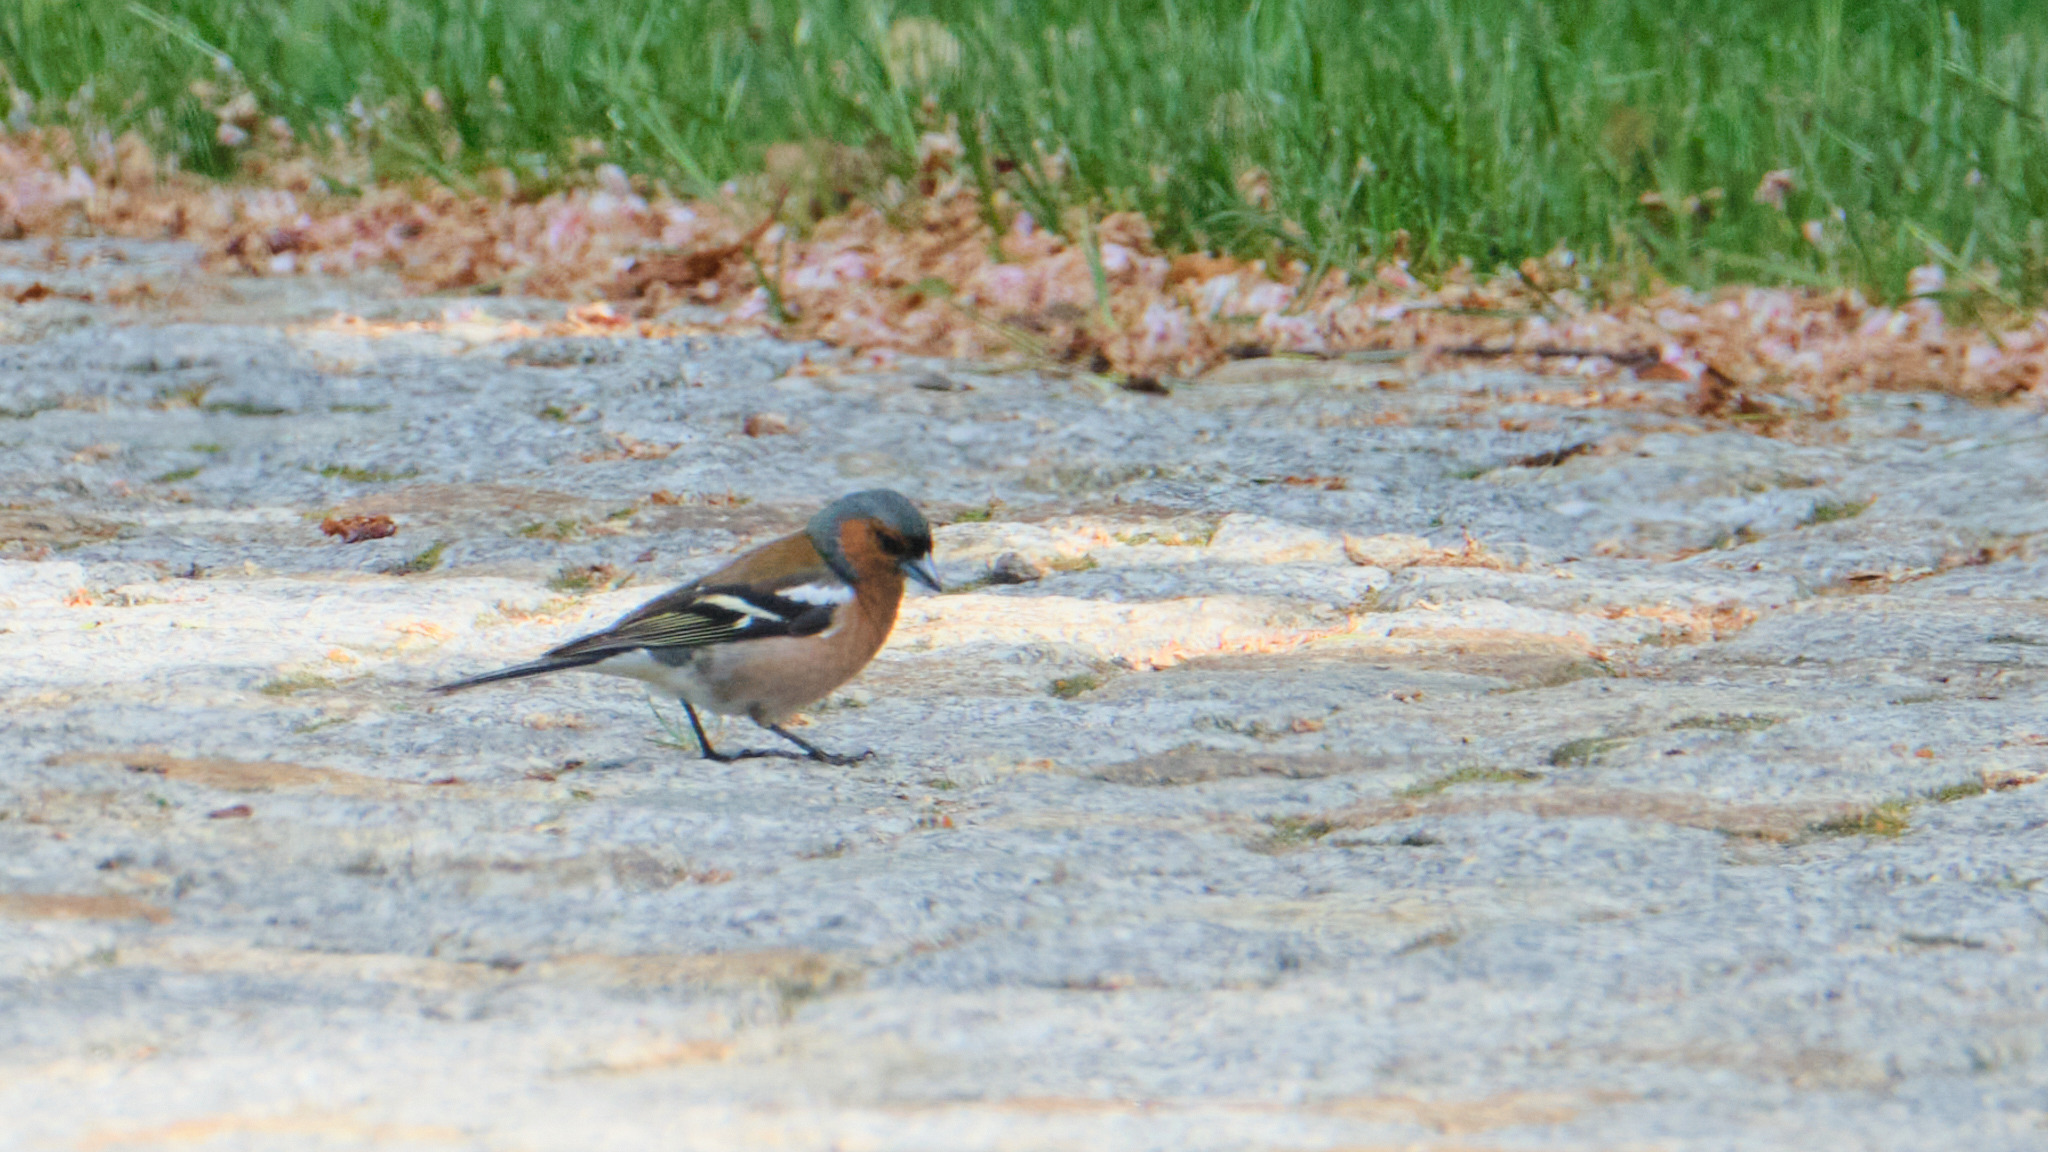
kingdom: Animalia
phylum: Chordata
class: Aves
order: Passeriformes
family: Fringillidae
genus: Fringilla
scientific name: Fringilla coelebs
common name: Common chaffinch
